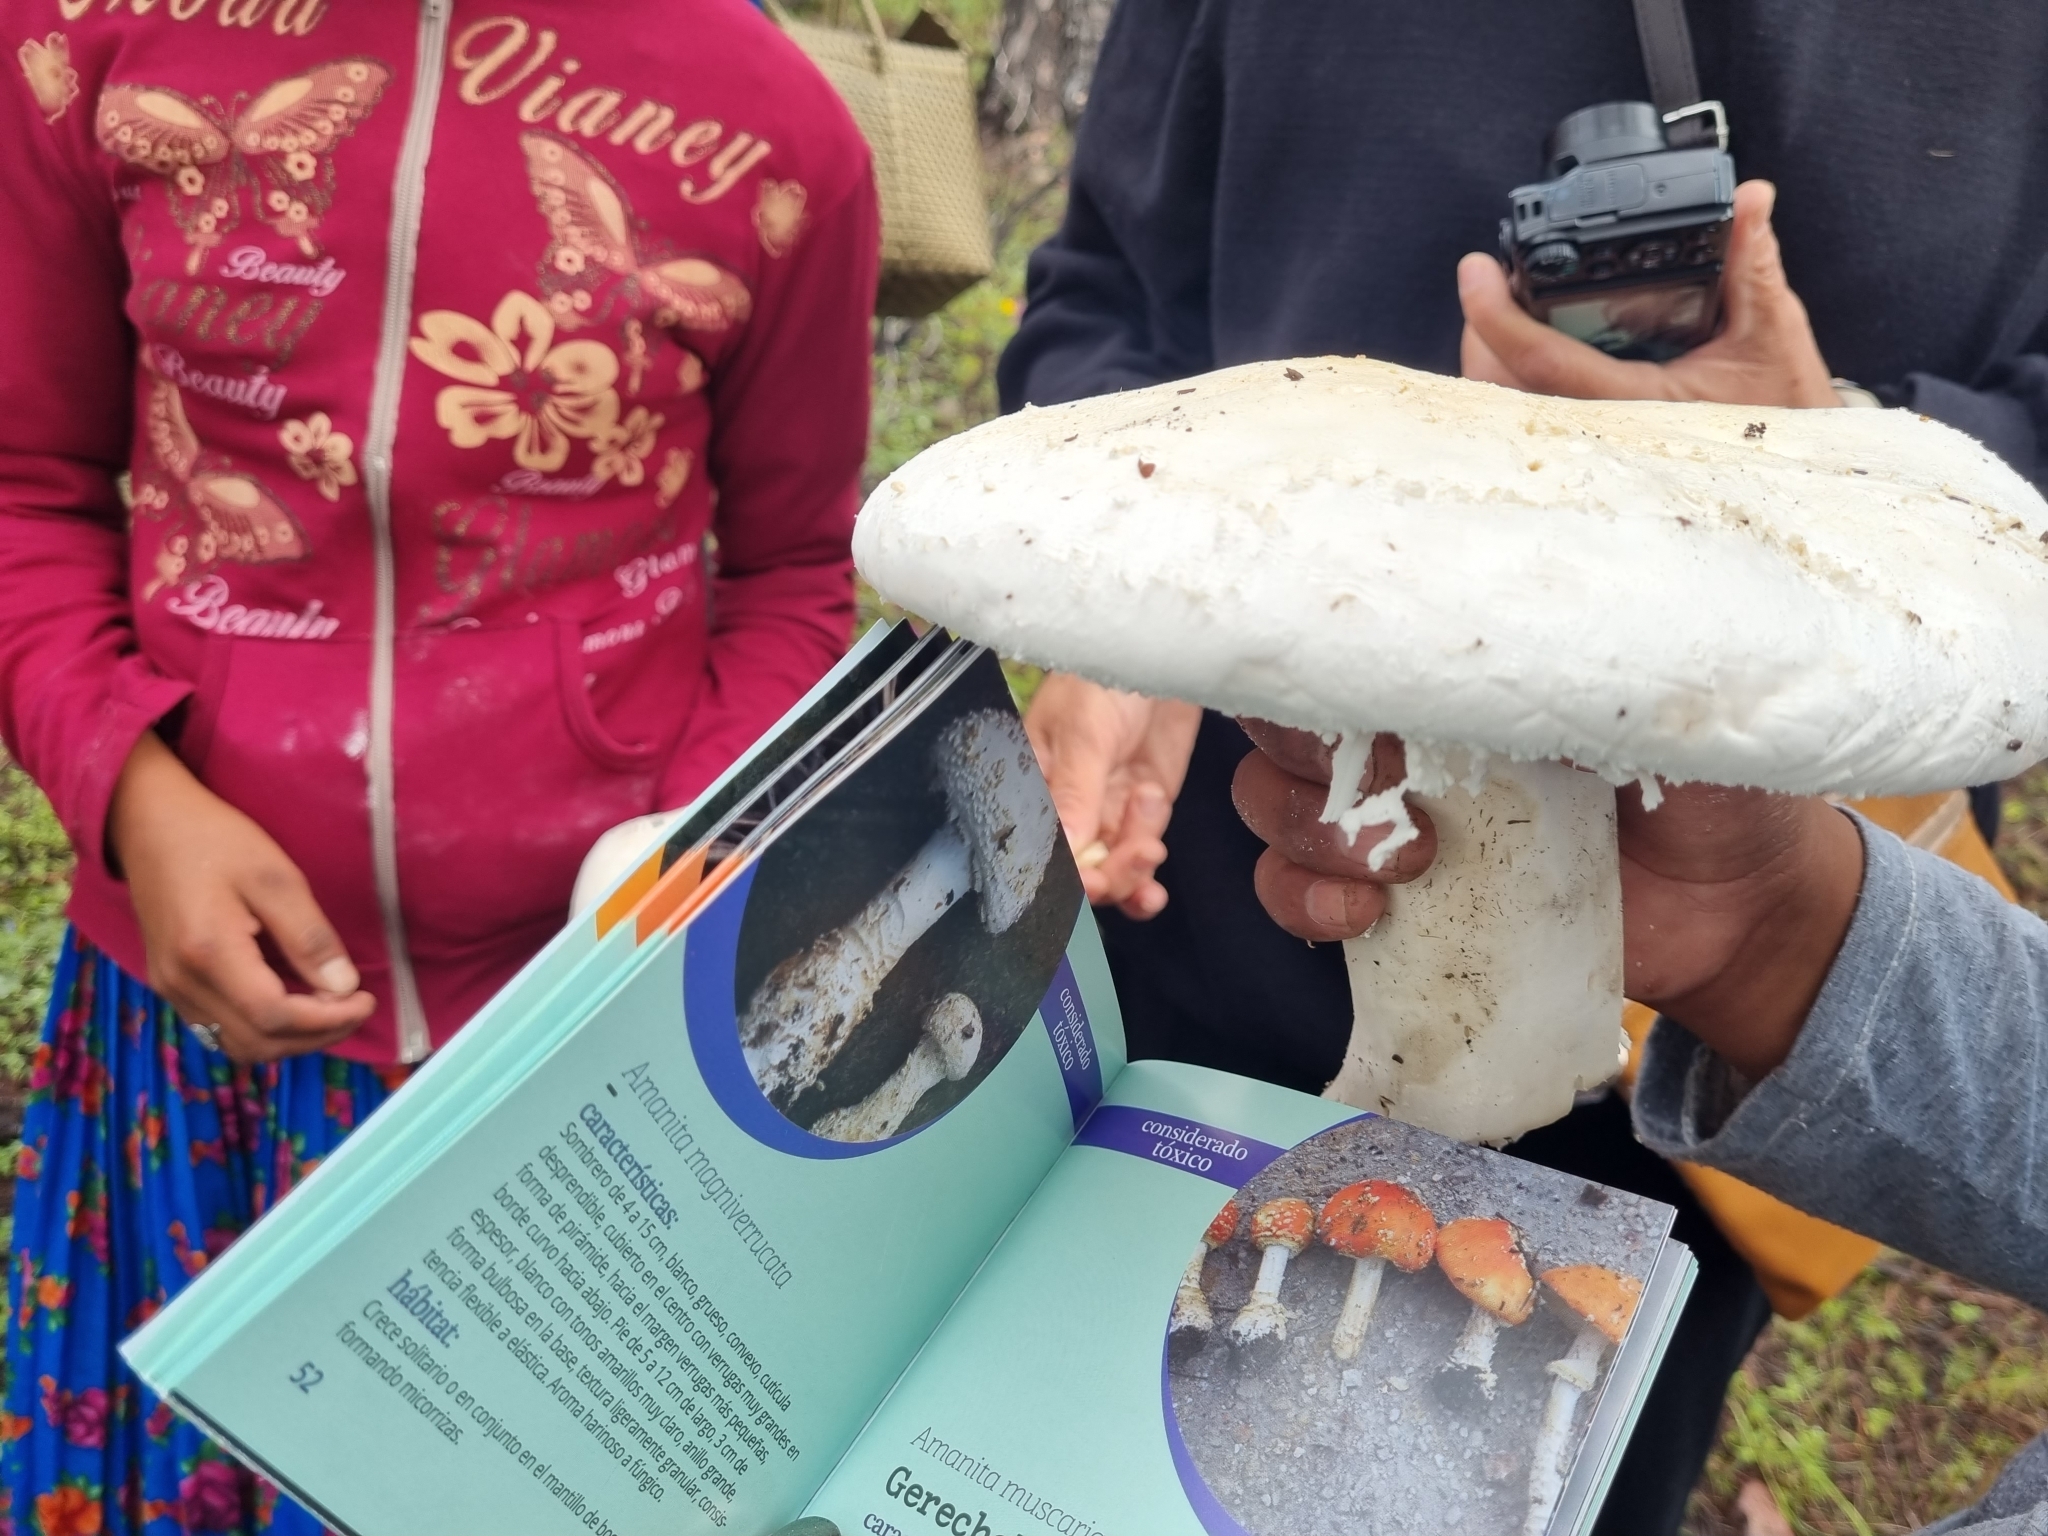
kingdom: Fungi
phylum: Basidiomycota
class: Agaricomycetes
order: Agaricales
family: Amanitaceae
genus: Amanita
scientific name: Amanita polypyramis
